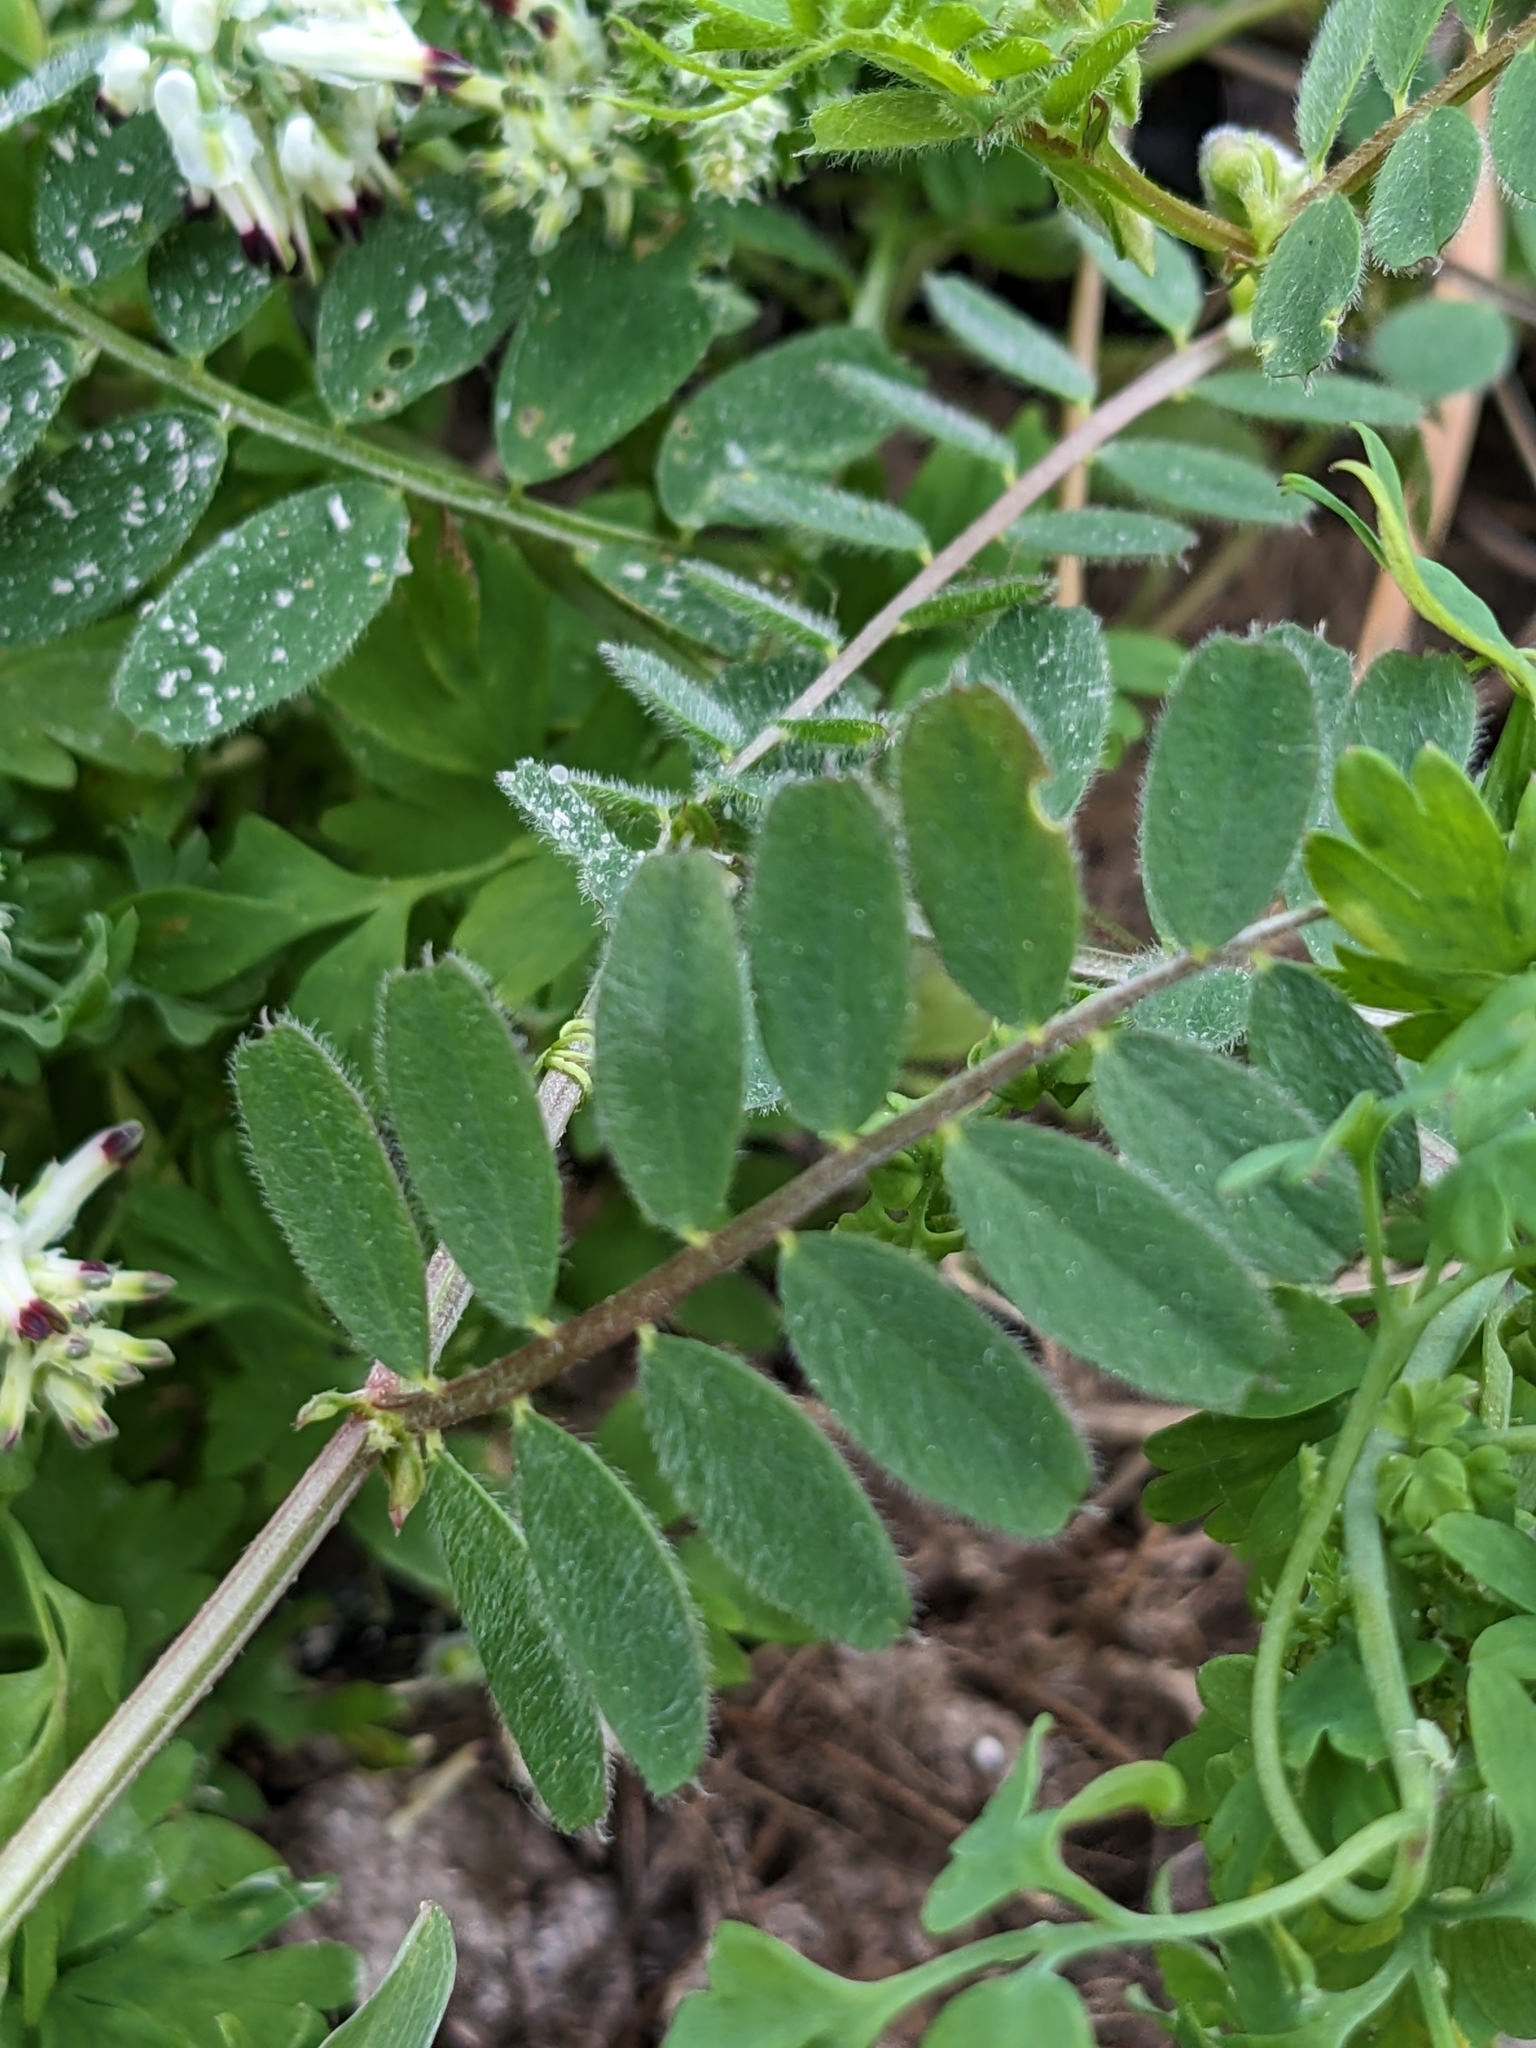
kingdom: Plantae
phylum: Tracheophyta
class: Magnoliopsida
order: Fabales
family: Fabaceae
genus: Vicia
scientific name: Vicia hybrida
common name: Hairy yellow vetch
